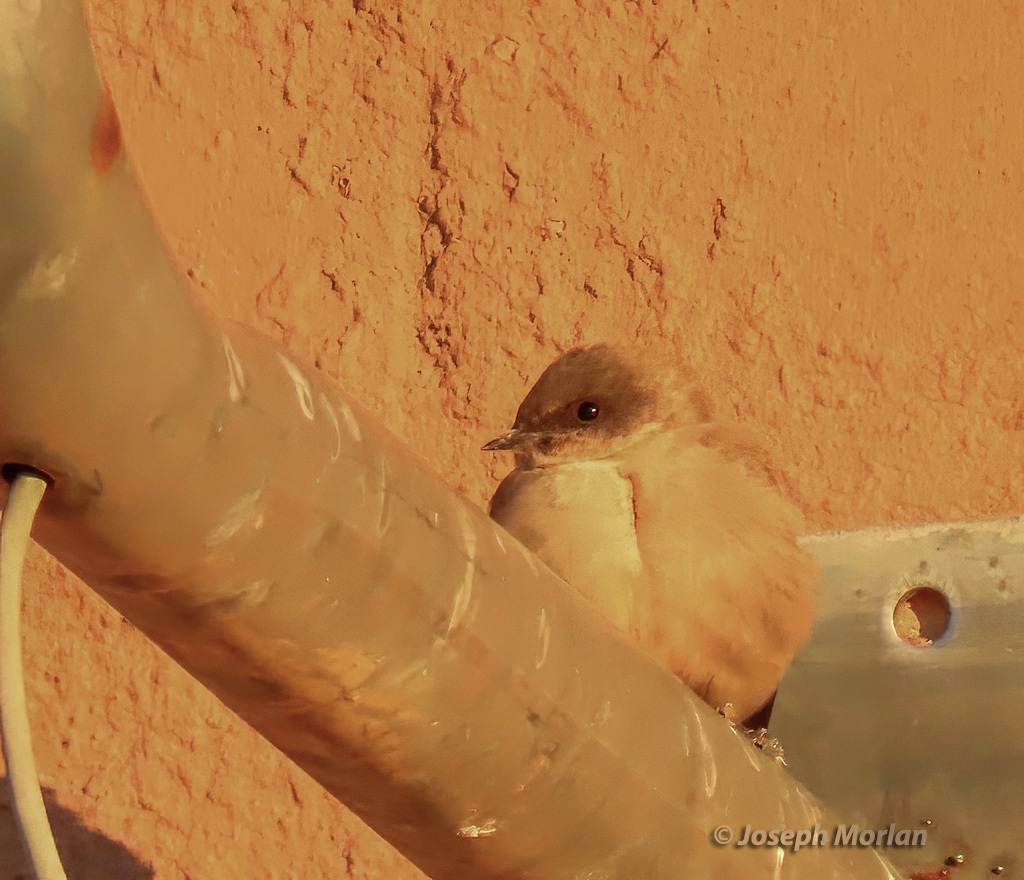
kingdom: Animalia
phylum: Chordata
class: Aves
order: Passeriformes
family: Hirundinidae
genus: Ptyonoprogne
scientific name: Ptyonoprogne fuligula
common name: Rock martin
